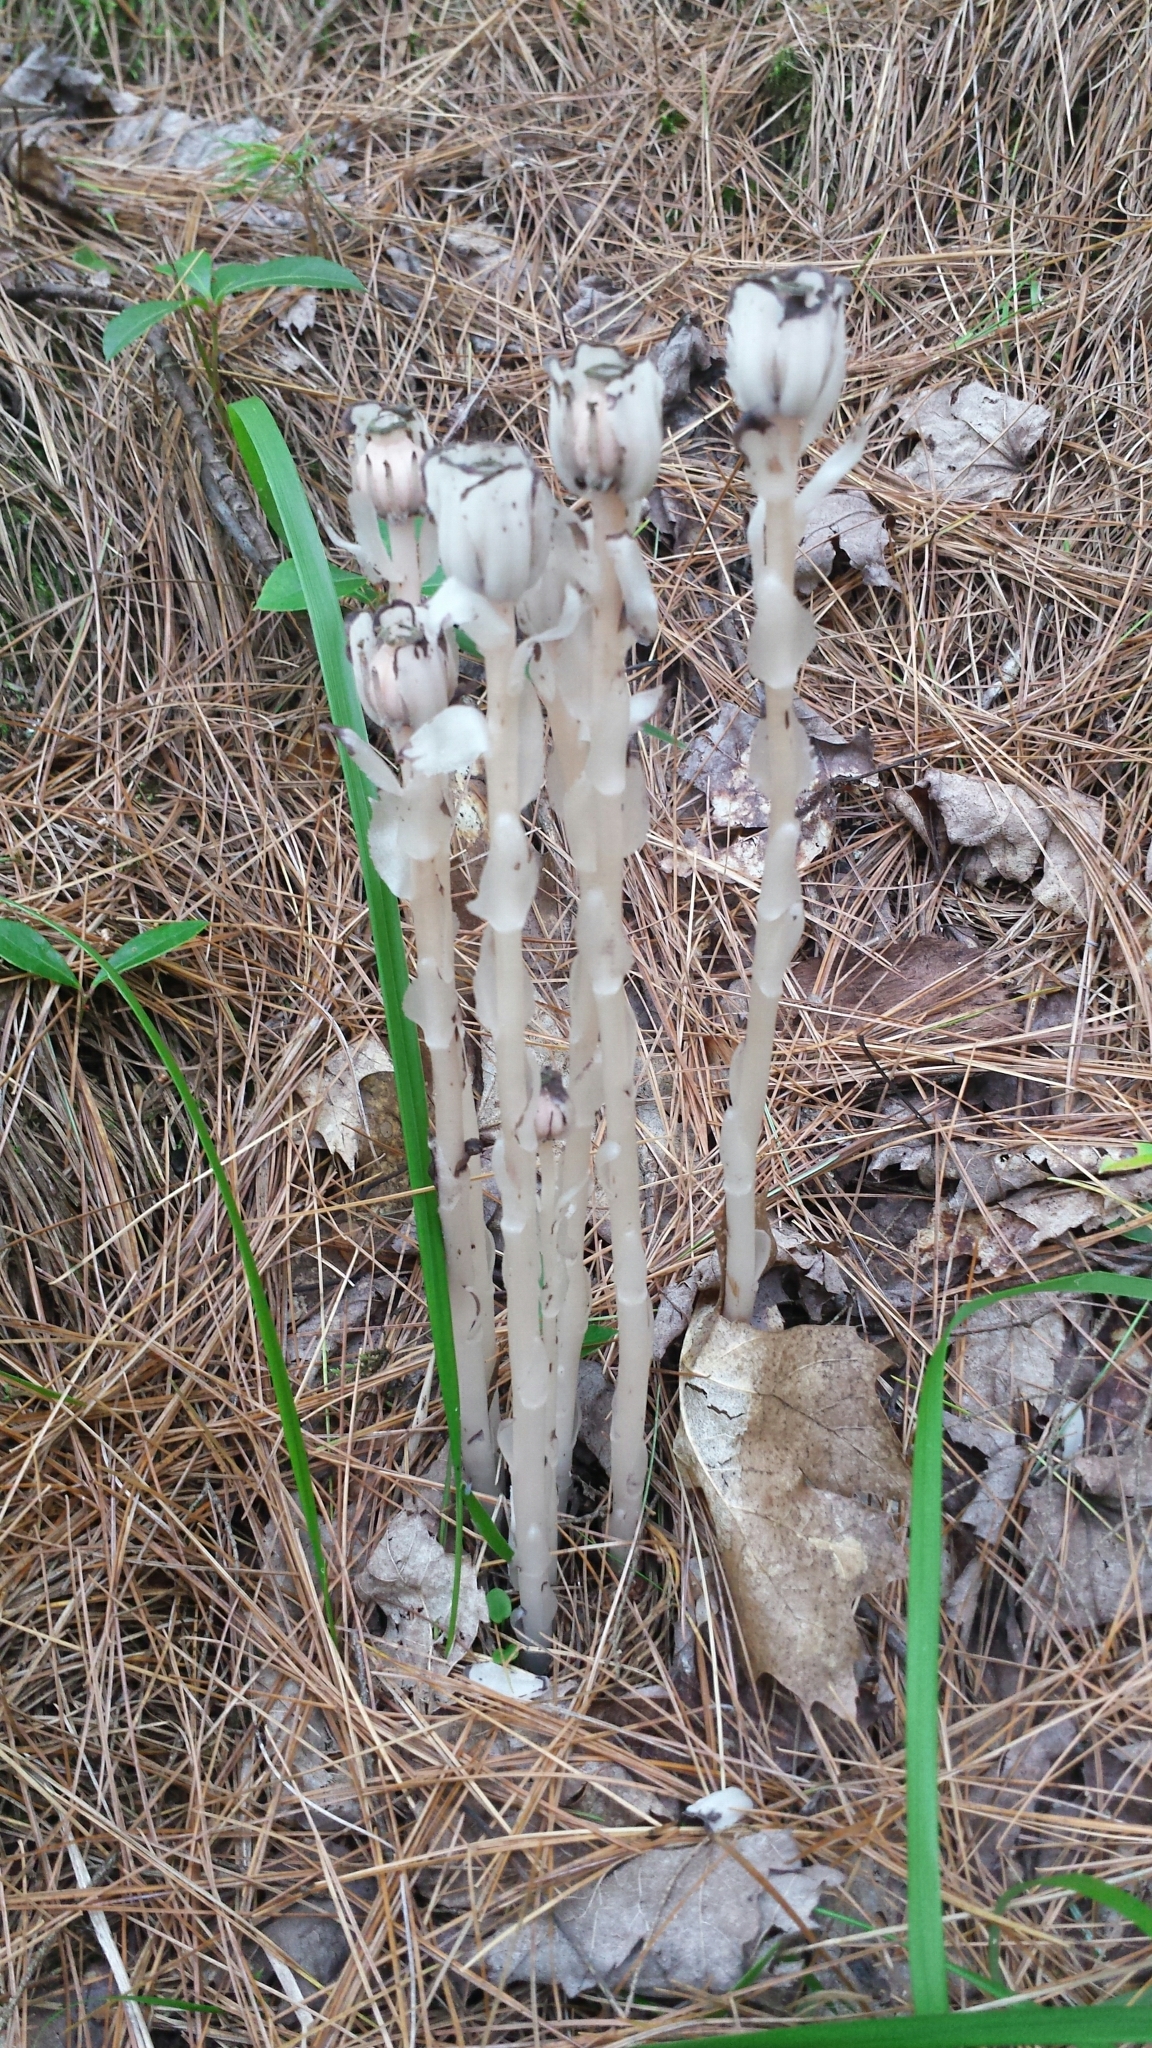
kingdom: Plantae
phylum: Tracheophyta
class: Magnoliopsida
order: Ericales
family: Ericaceae
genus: Monotropa
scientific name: Monotropa uniflora
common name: Convulsion root
